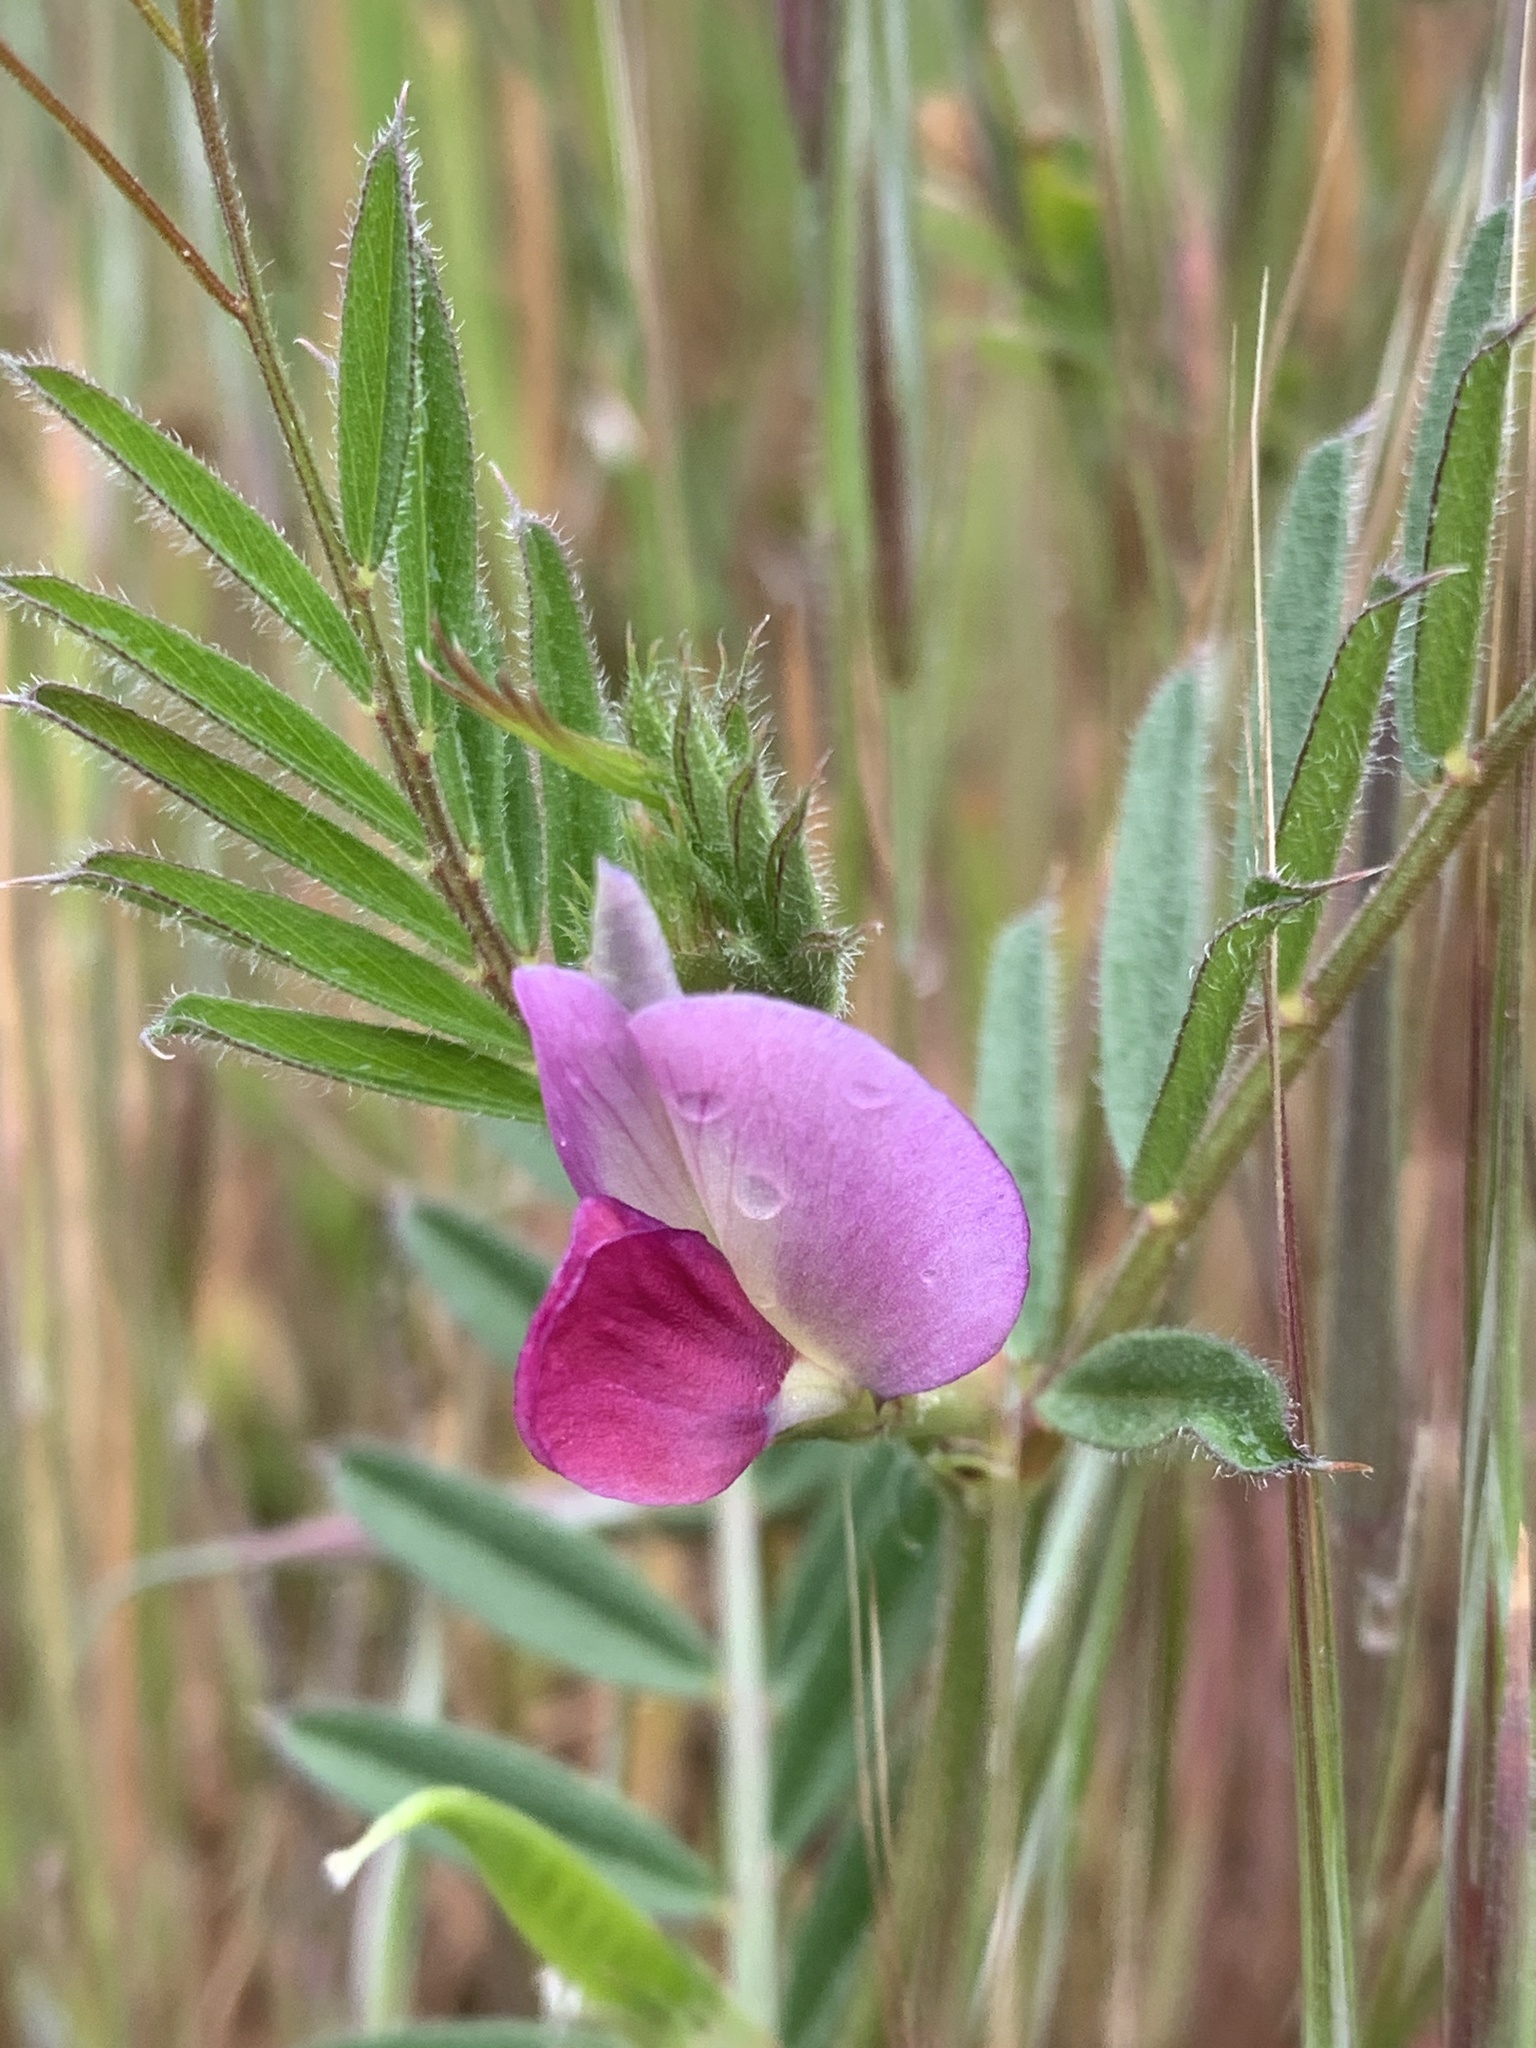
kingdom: Plantae
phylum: Tracheophyta
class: Magnoliopsida
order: Fabales
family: Fabaceae
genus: Vicia
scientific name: Vicia sativa
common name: Garden vetch
